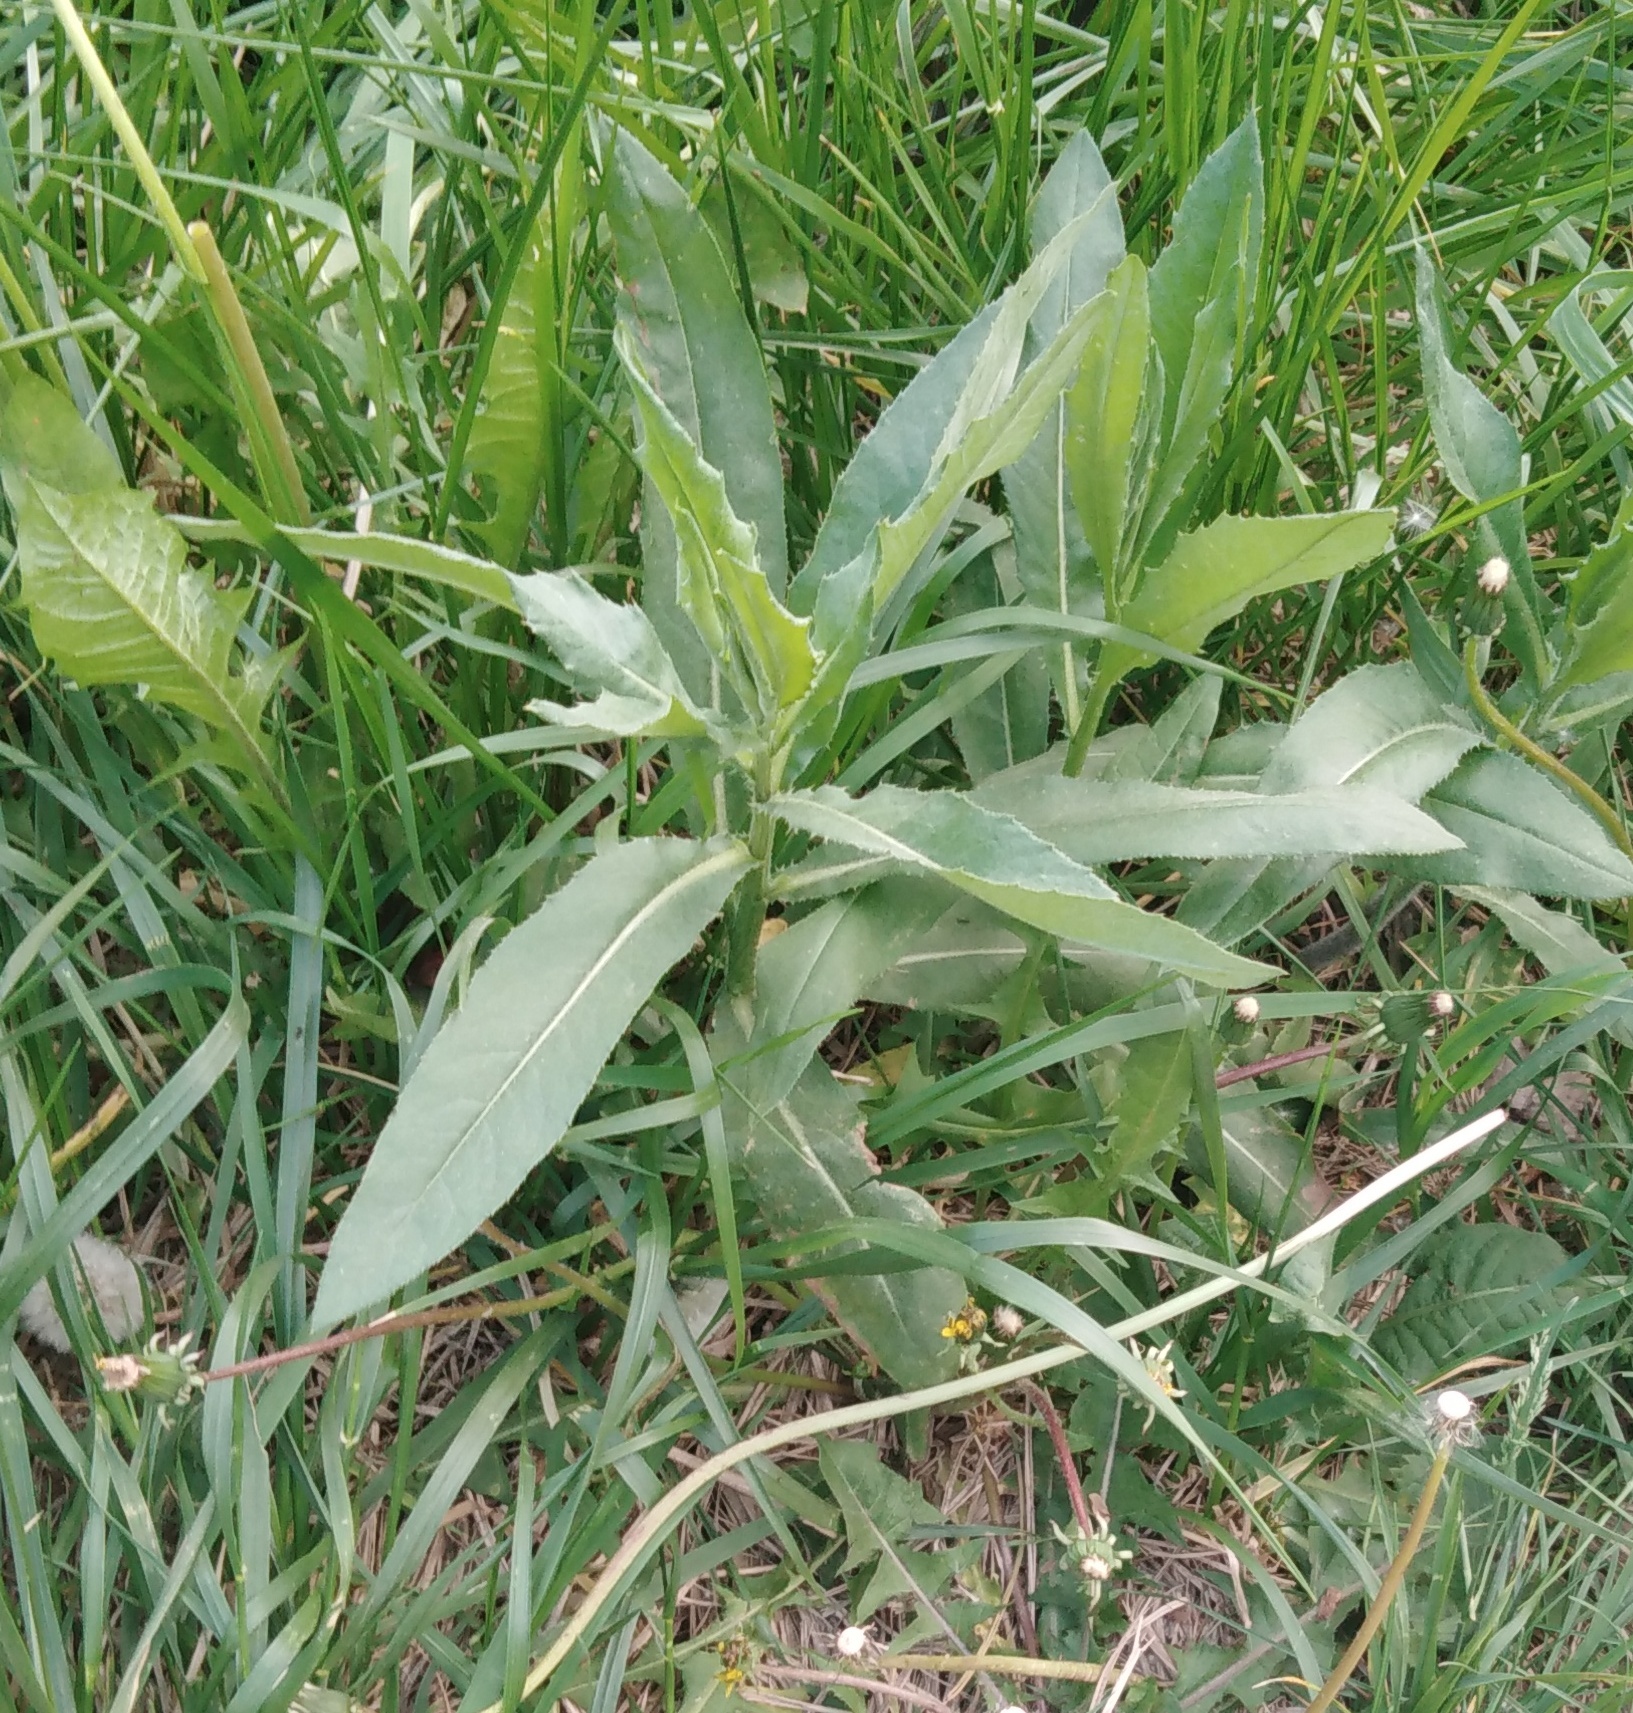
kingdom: Plantae
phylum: Tracheophyta
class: Magnoliopsida
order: Asterales
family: Asteraceae
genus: Cirsium
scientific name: Cirsium arvense
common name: Creeping thistle
